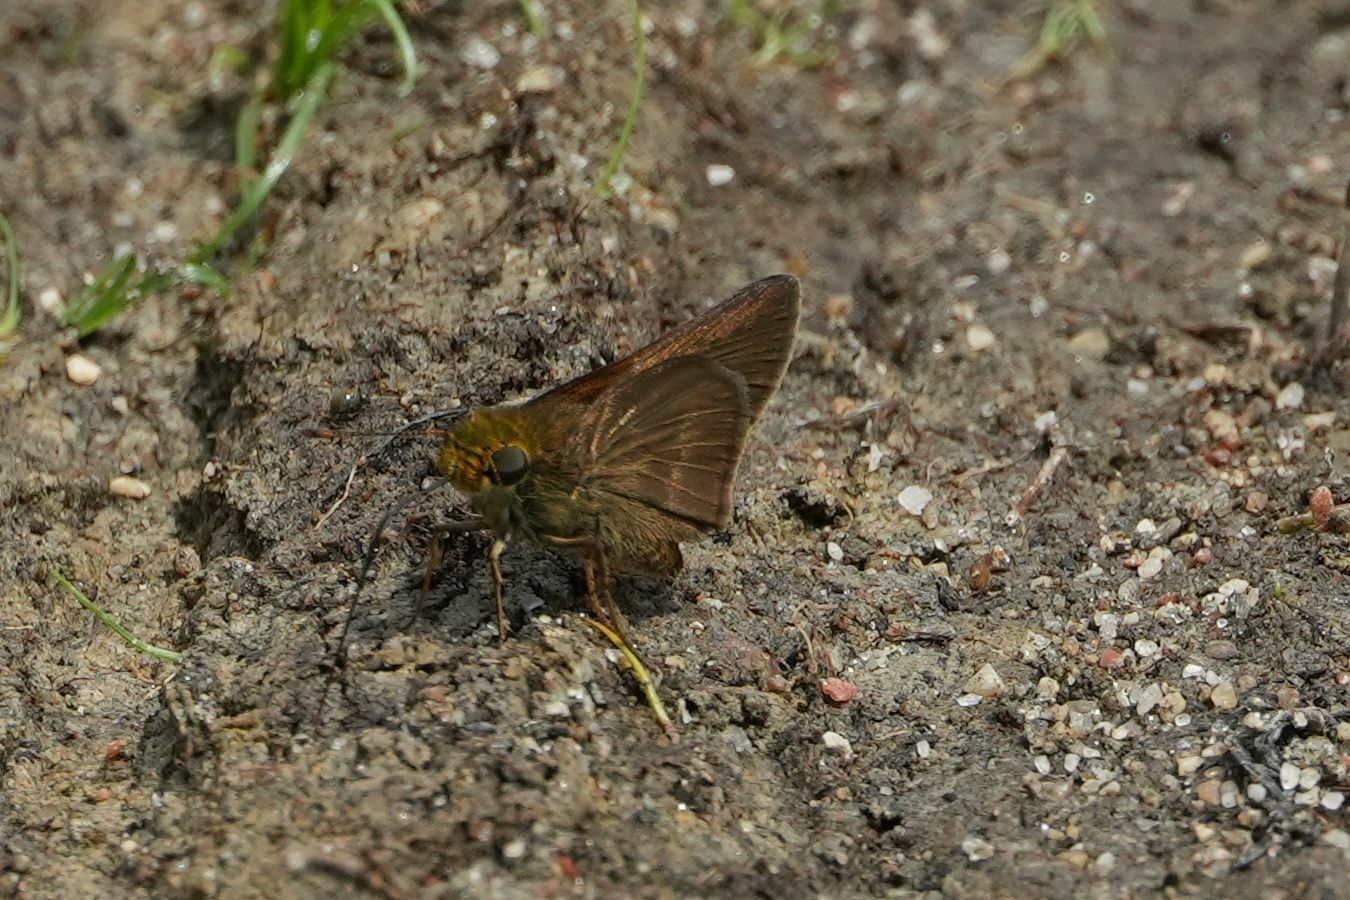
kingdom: Animalia
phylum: Arthropoda
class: Insecta
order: Lepidoptera
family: Hesperiidae
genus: Euphyes
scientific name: Euphyes vestris
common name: Dun skipper
